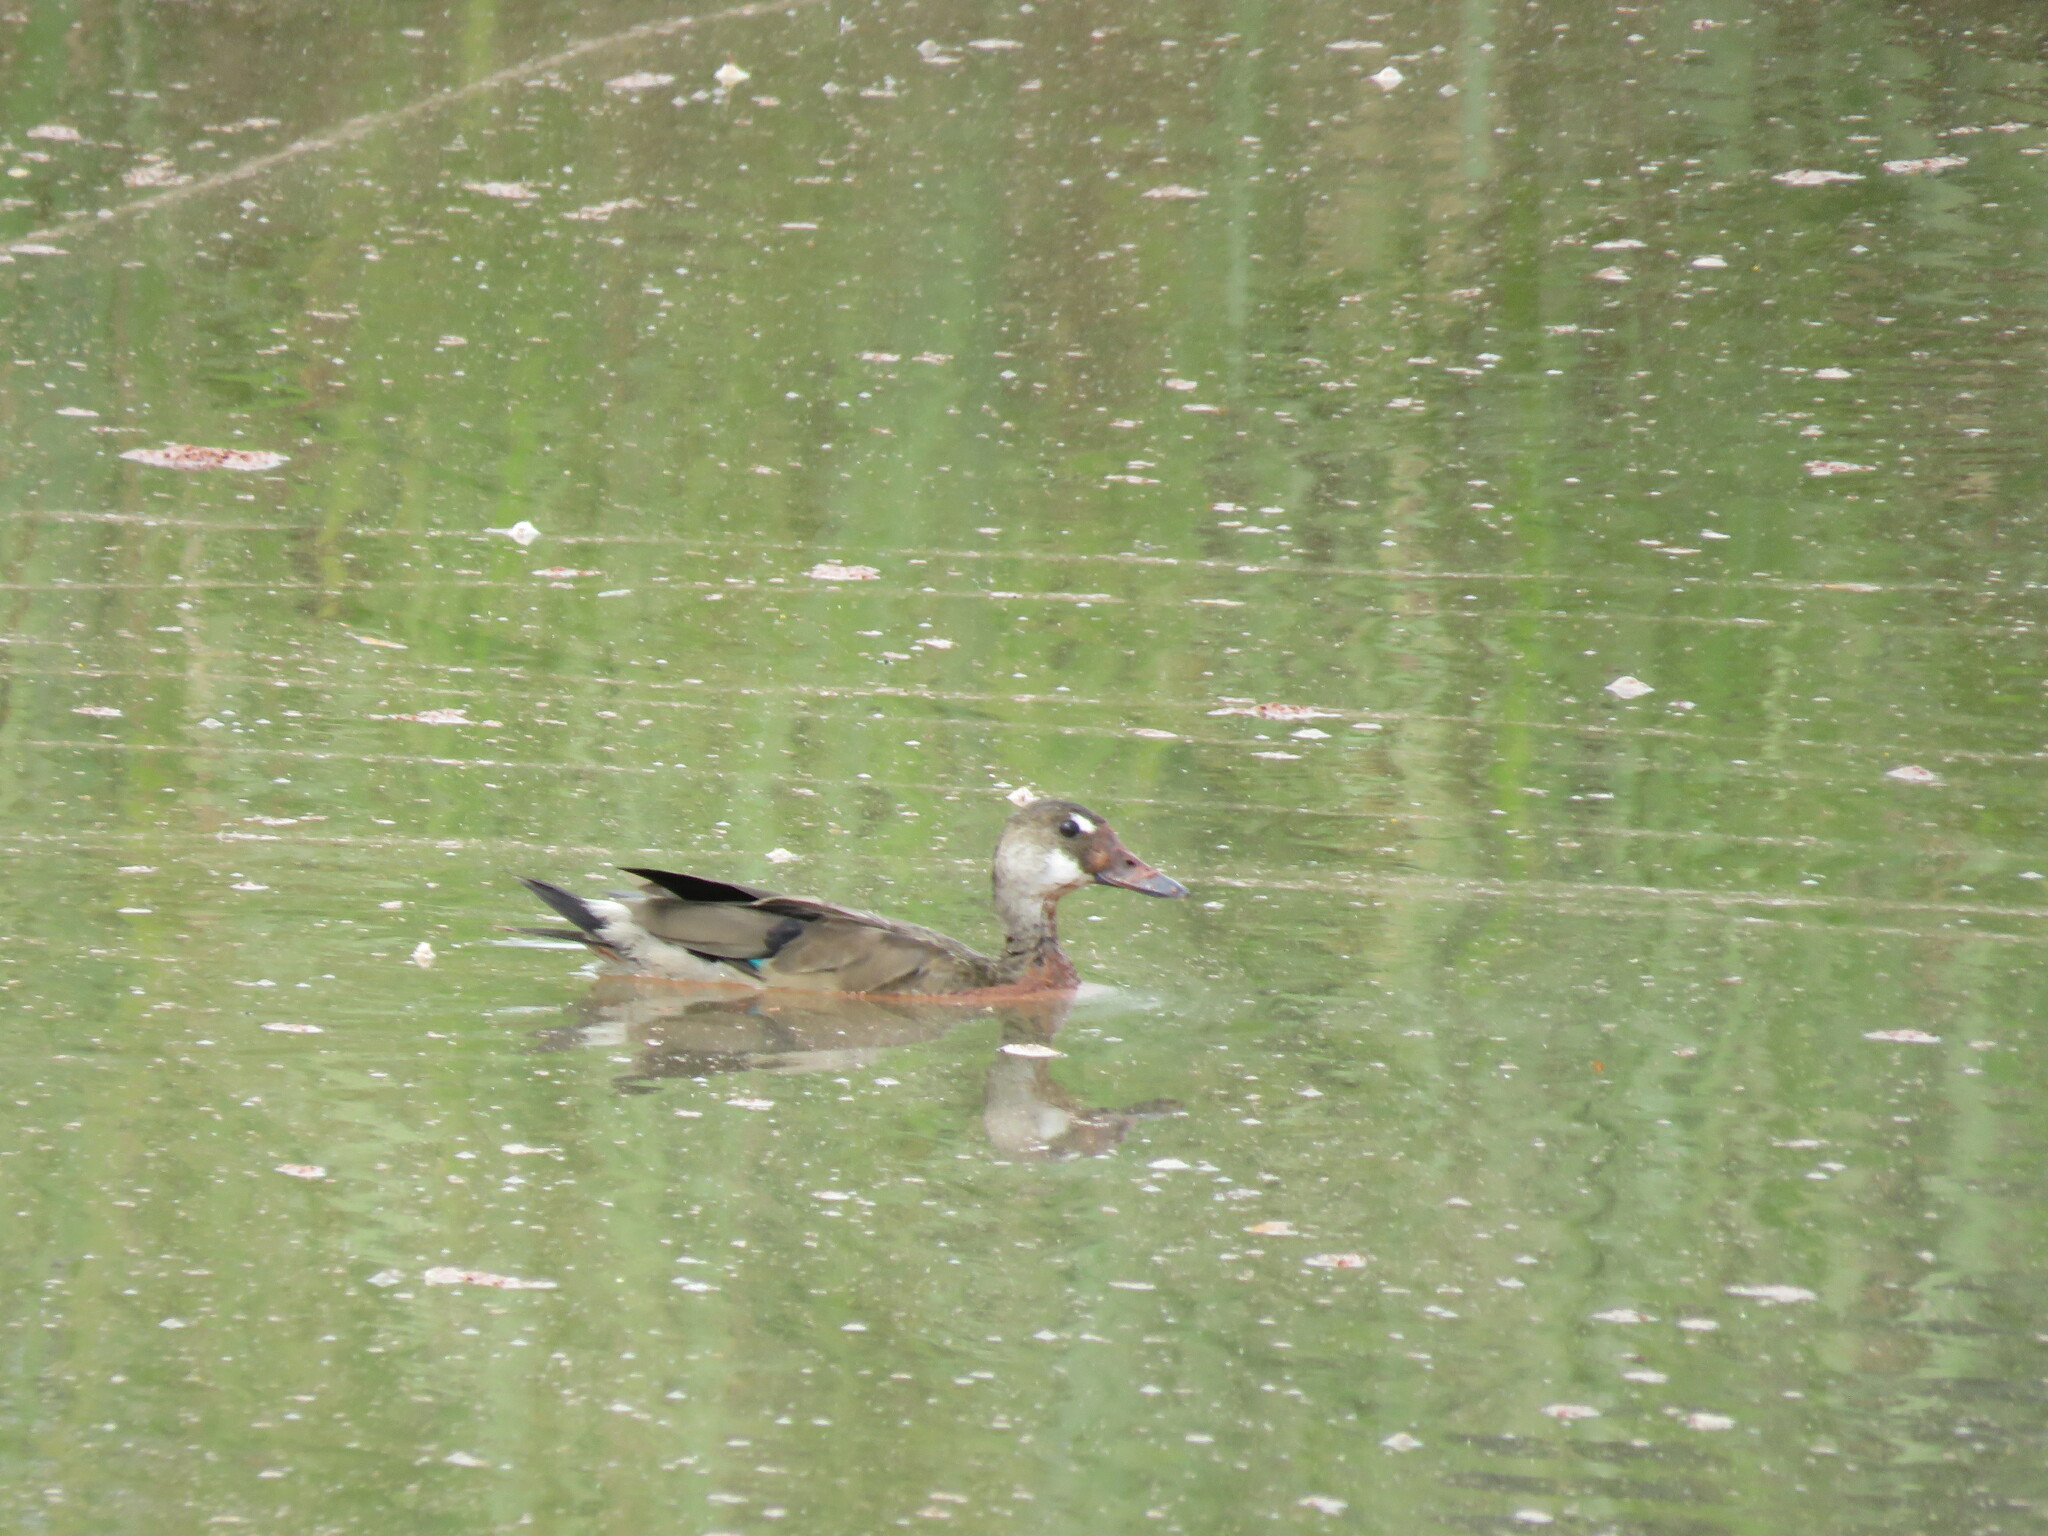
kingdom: Animalia
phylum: Chordata
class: Aves
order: Anseriformes
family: Anatidae
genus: Amazonetta
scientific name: Amazonetta brasiliensis
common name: Brazilian teal
